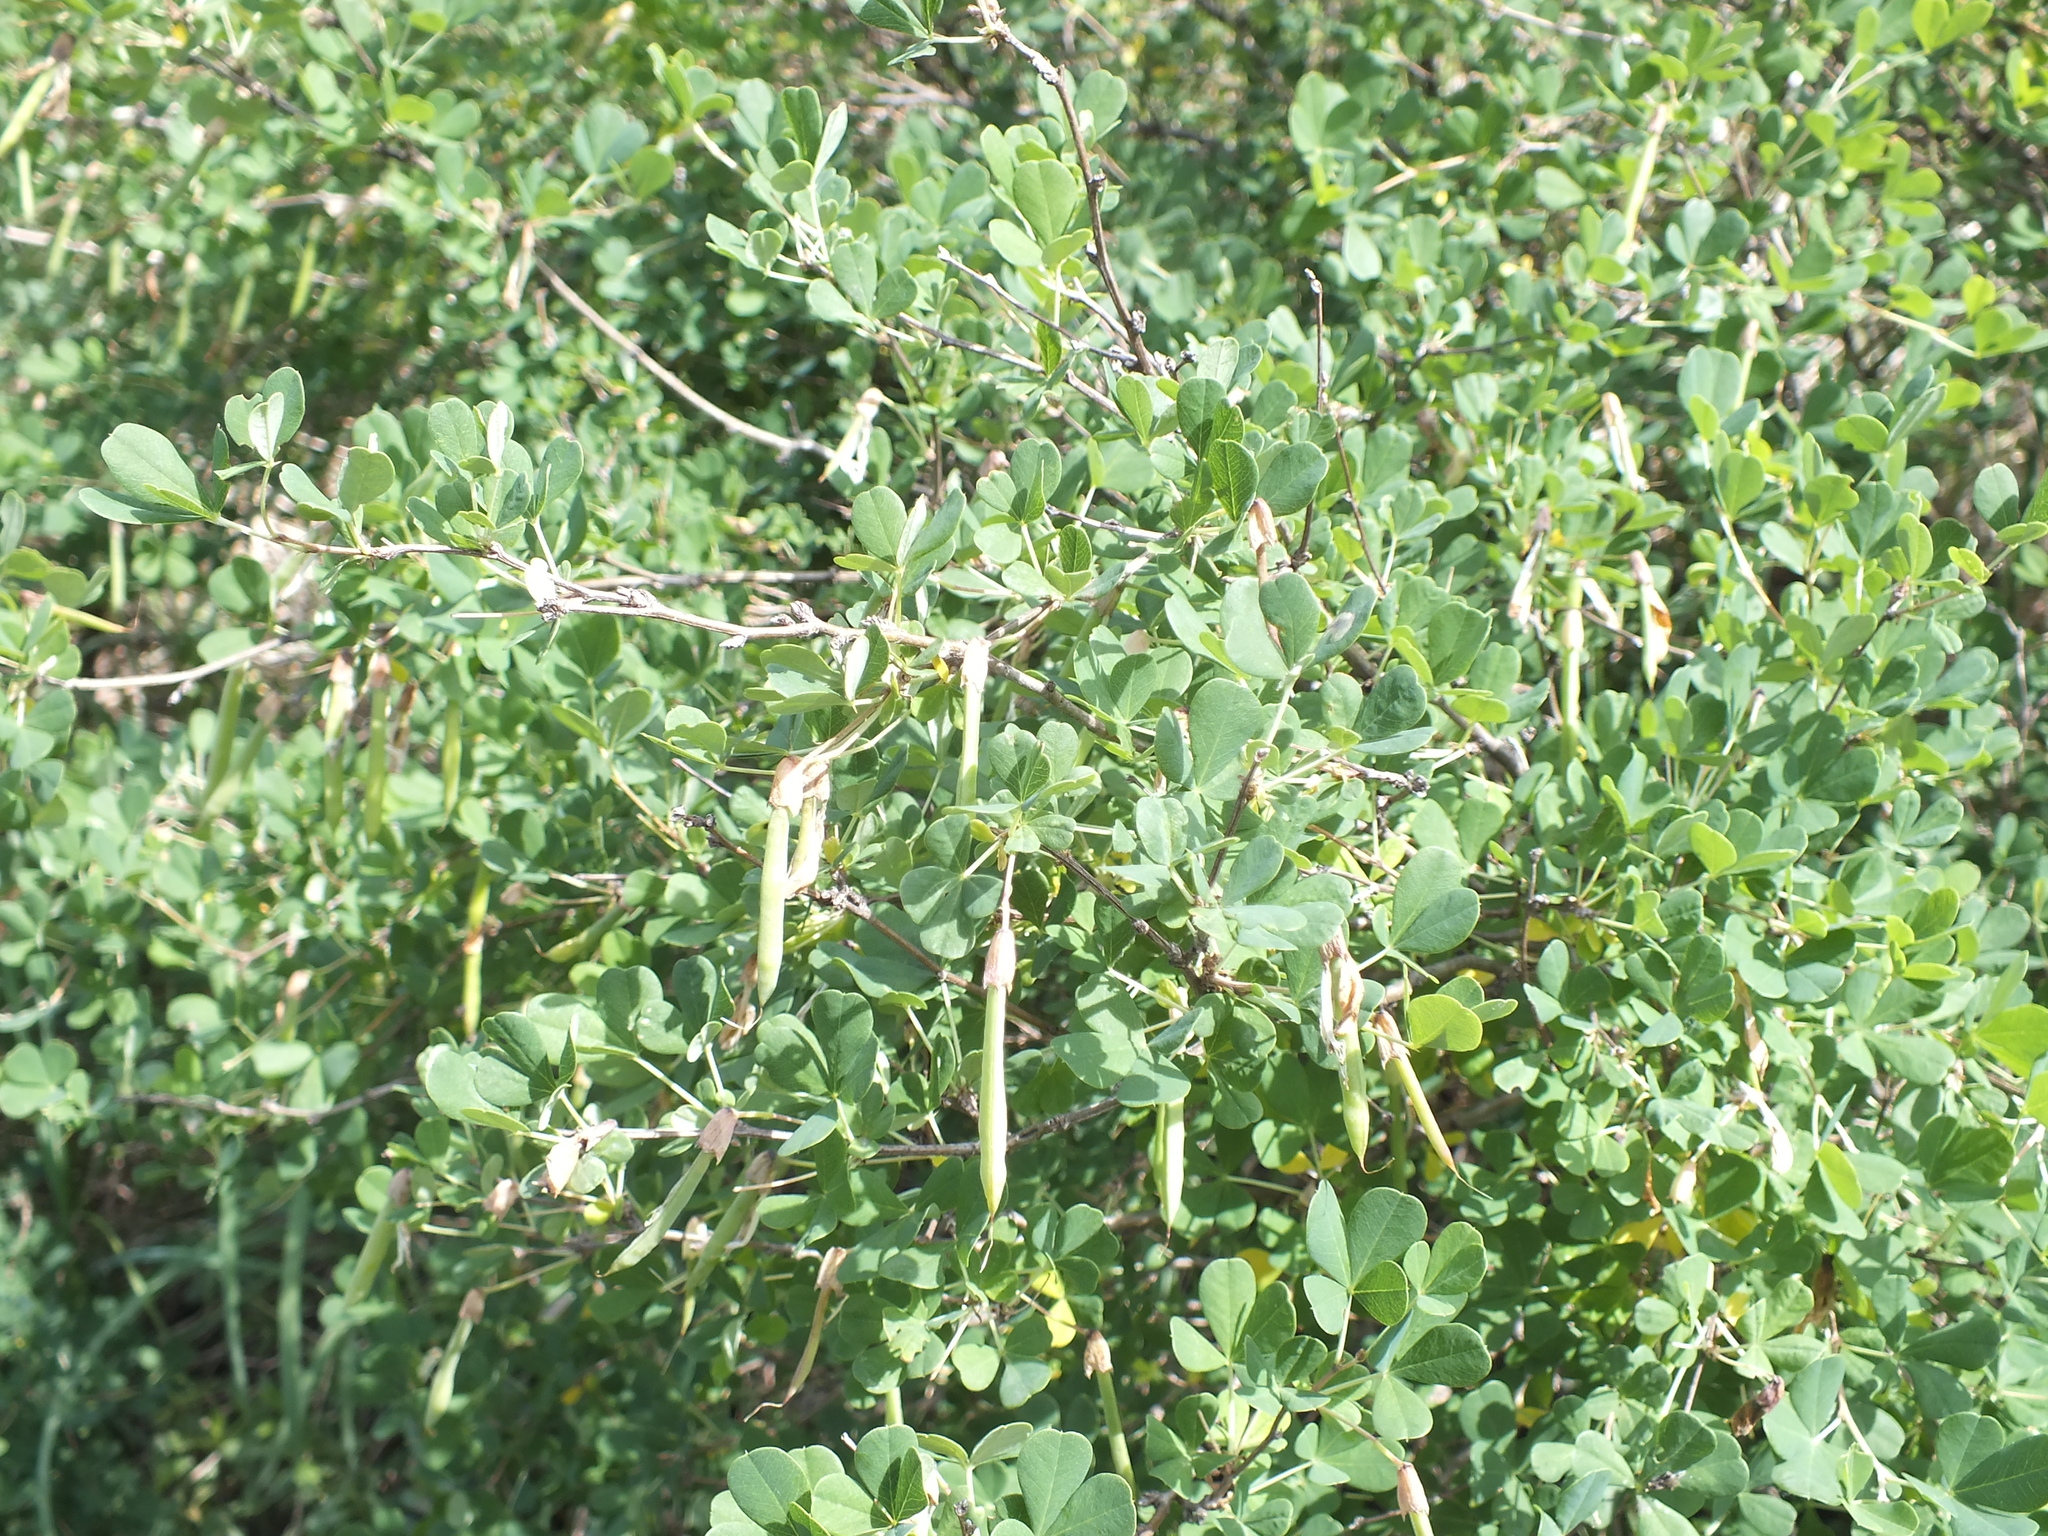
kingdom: Plantae
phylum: Tracheophyta
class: Magnoliopsida
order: Fabales
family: Fabaceae
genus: Caragana
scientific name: Caragana frutex
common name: Russian peashrub
